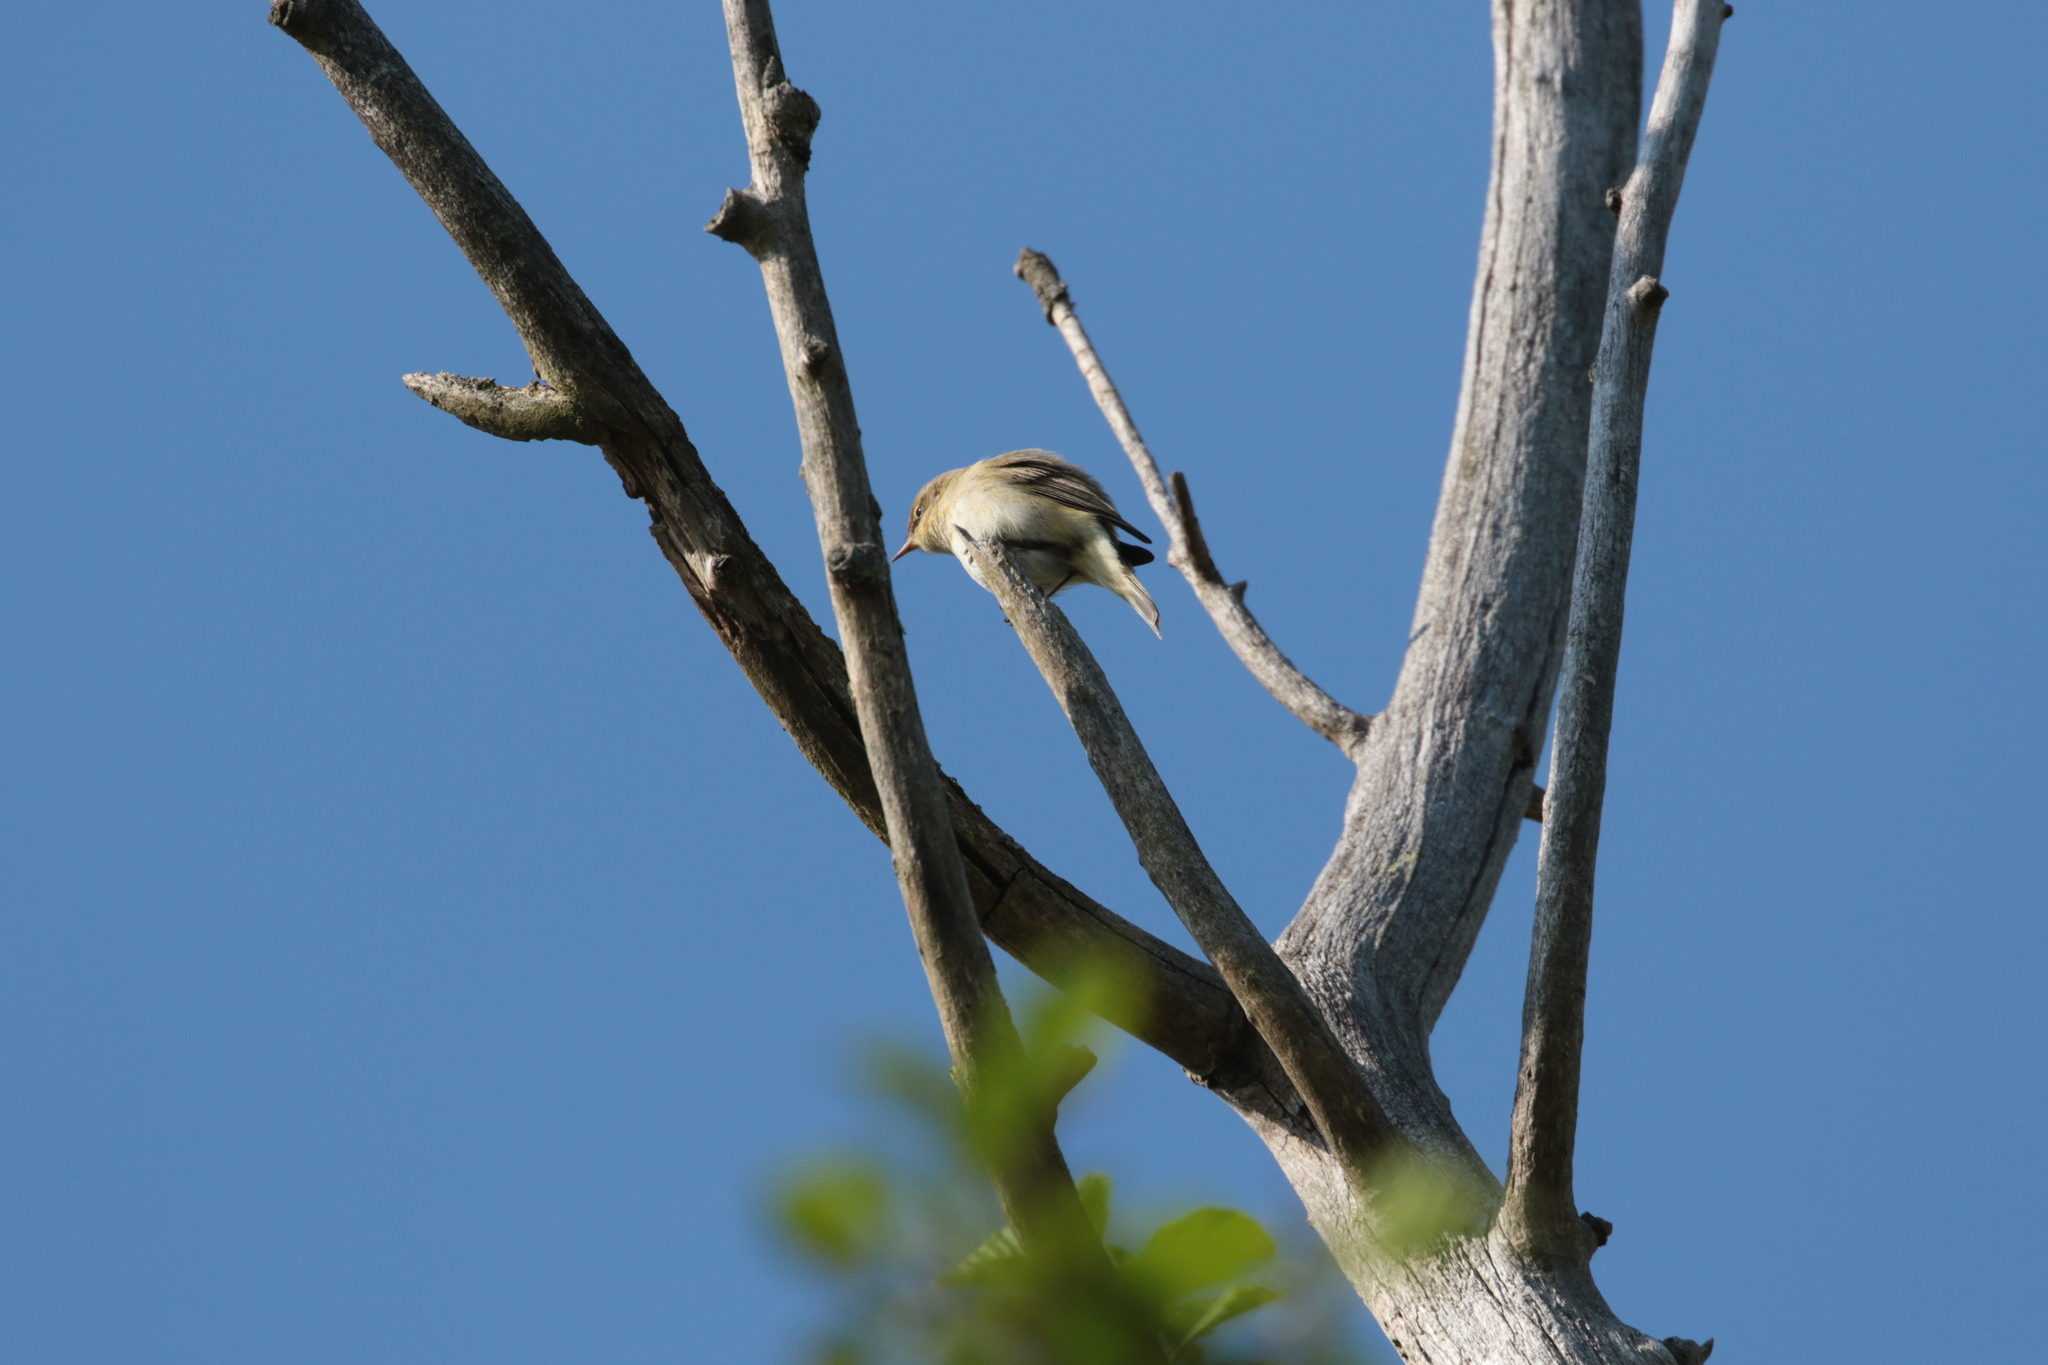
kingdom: Animalia
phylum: Chordata
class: Aves
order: Passeriformes
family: Phylloscopidae
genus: Phylloscopus
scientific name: Phylloscopus collybita
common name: Common chiffchaff
